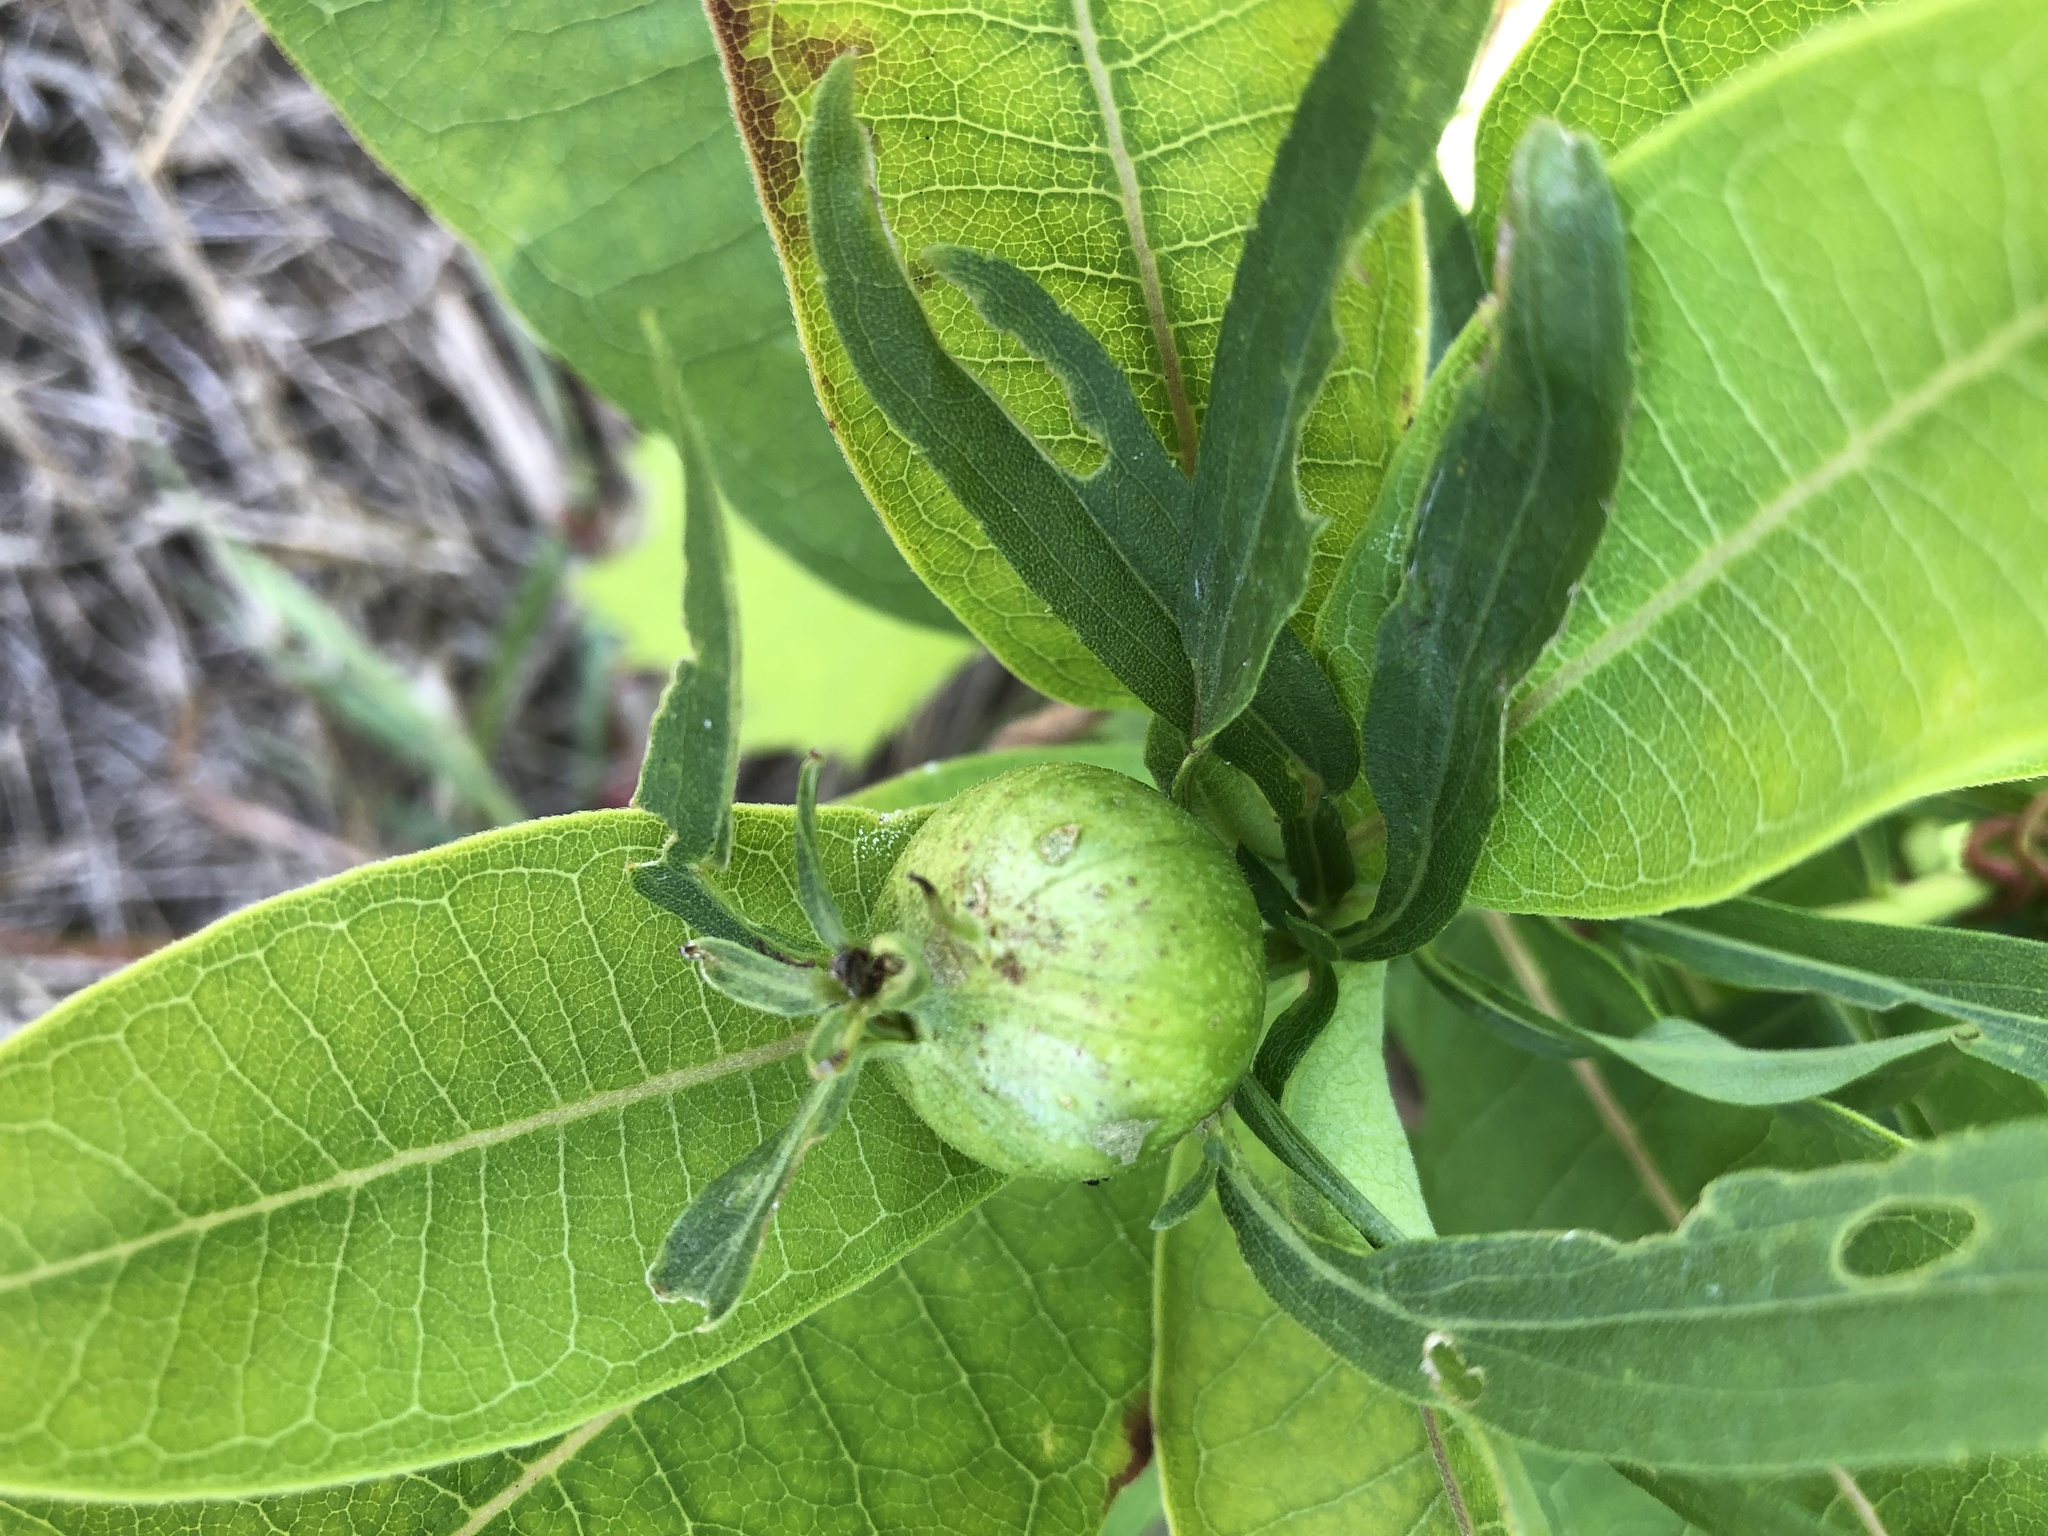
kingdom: Animalia
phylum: Arthropoda
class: Insecta
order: Diptera
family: Tephritidae
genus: Eurosta
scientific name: Eurosta solidaginis
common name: Goldenrod gall fly
